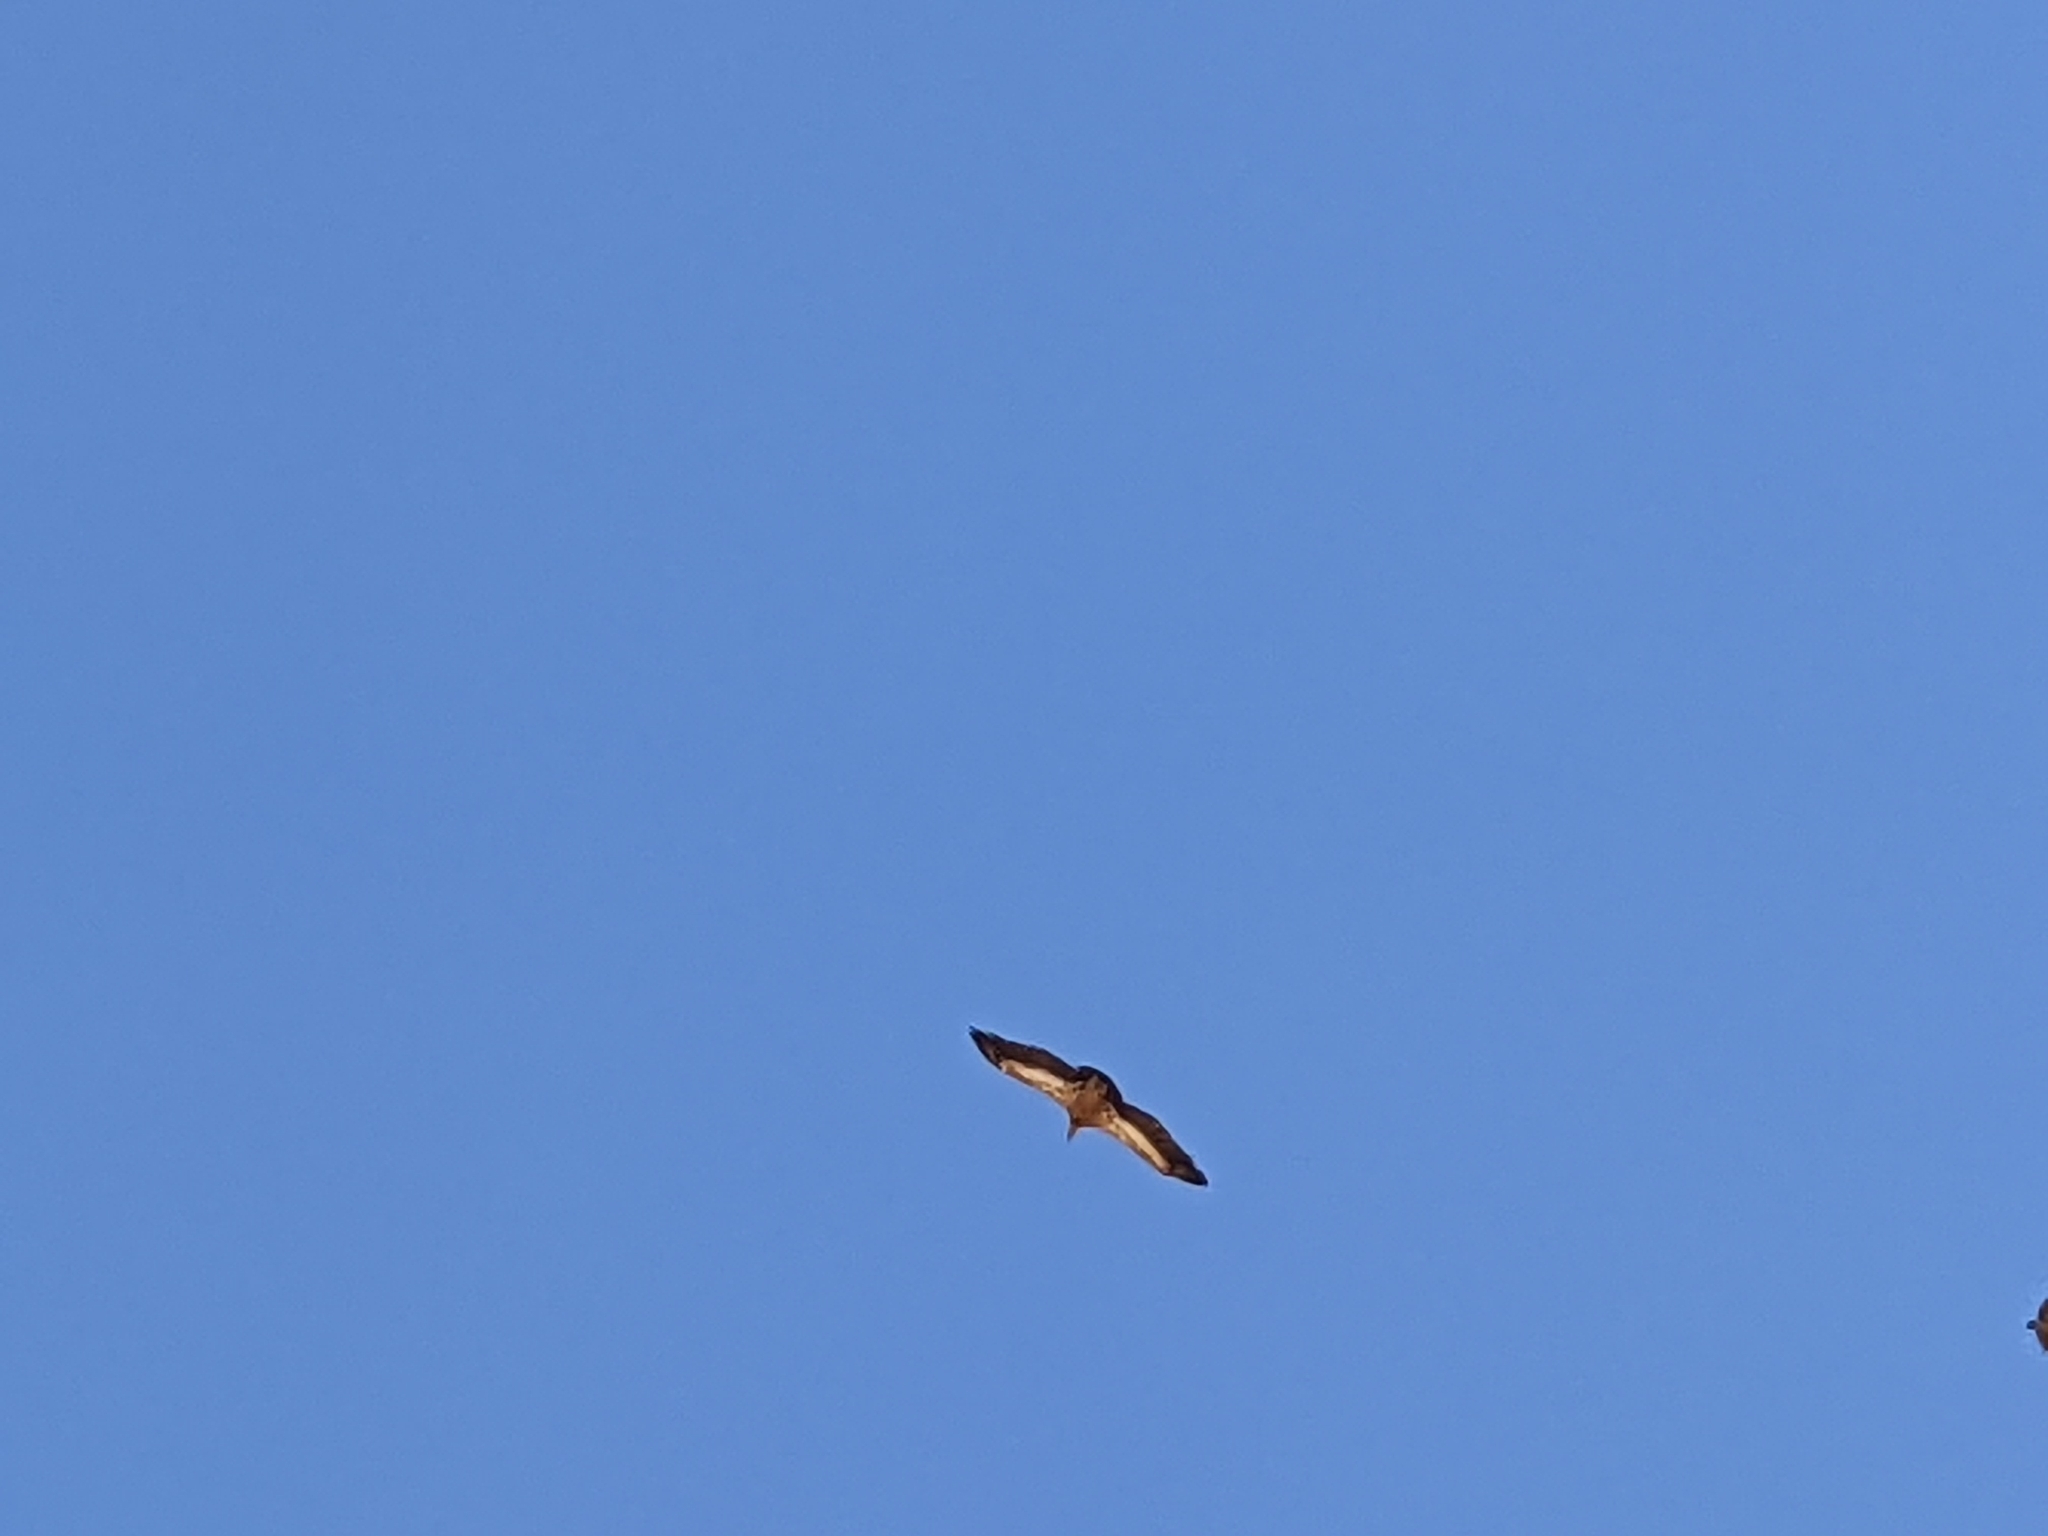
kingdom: Animalia
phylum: Chordata
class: Aves
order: Accipitriformes
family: Accipitridae
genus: Gyps
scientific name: Gyps fulvus
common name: Griffon vulture
